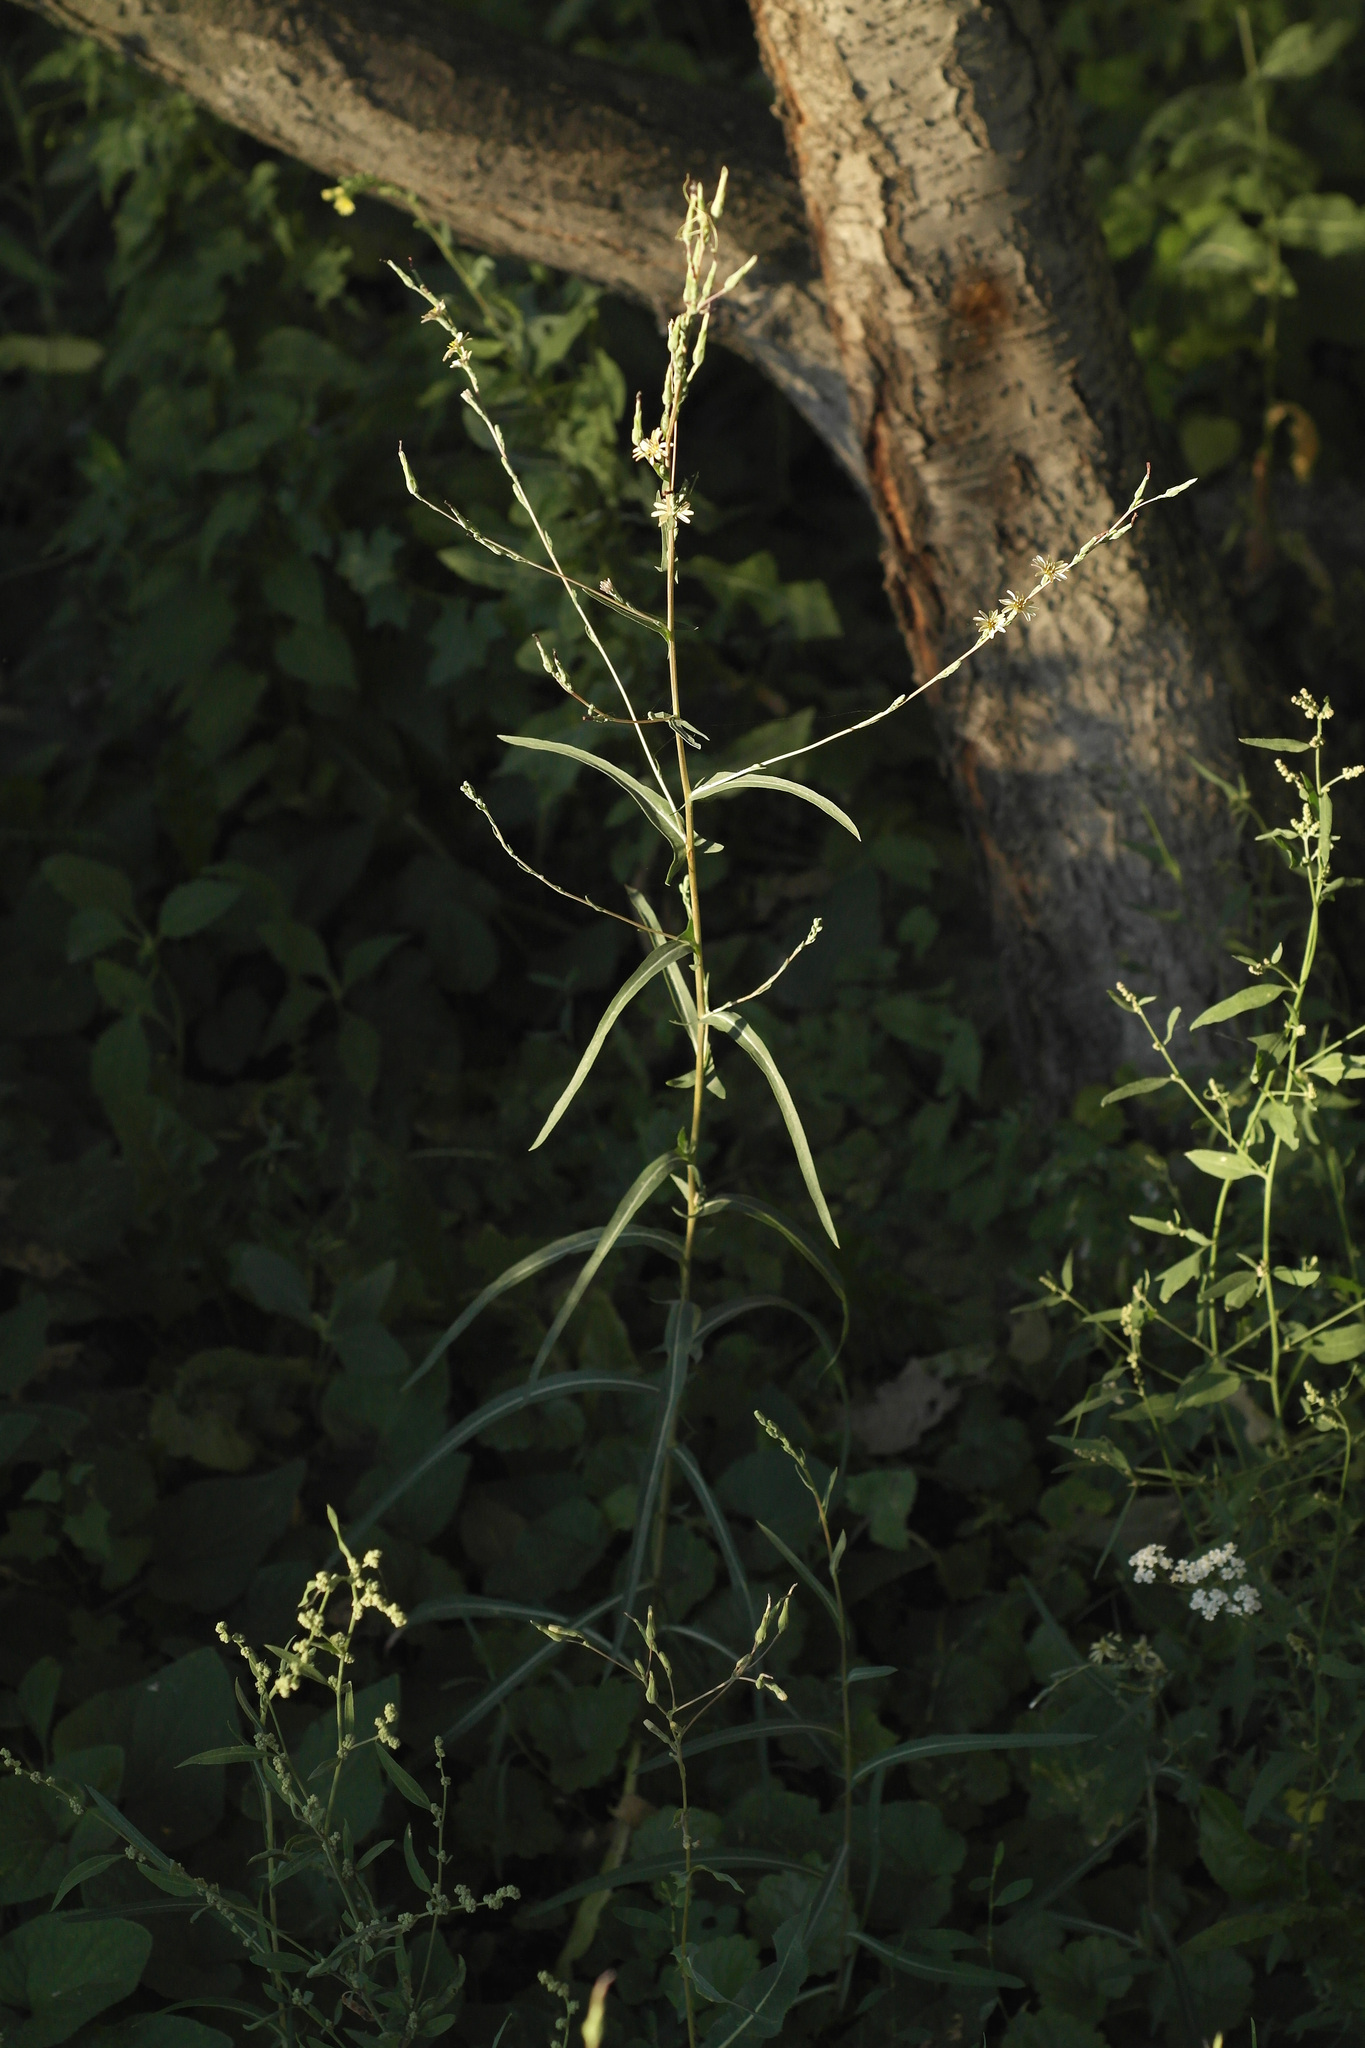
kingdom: Plantae
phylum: Tracheophyta
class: Magnoliopsida
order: Asterales
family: Asteraceae
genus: Lactuca
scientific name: Lactuca saligna
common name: Wild lettuce
